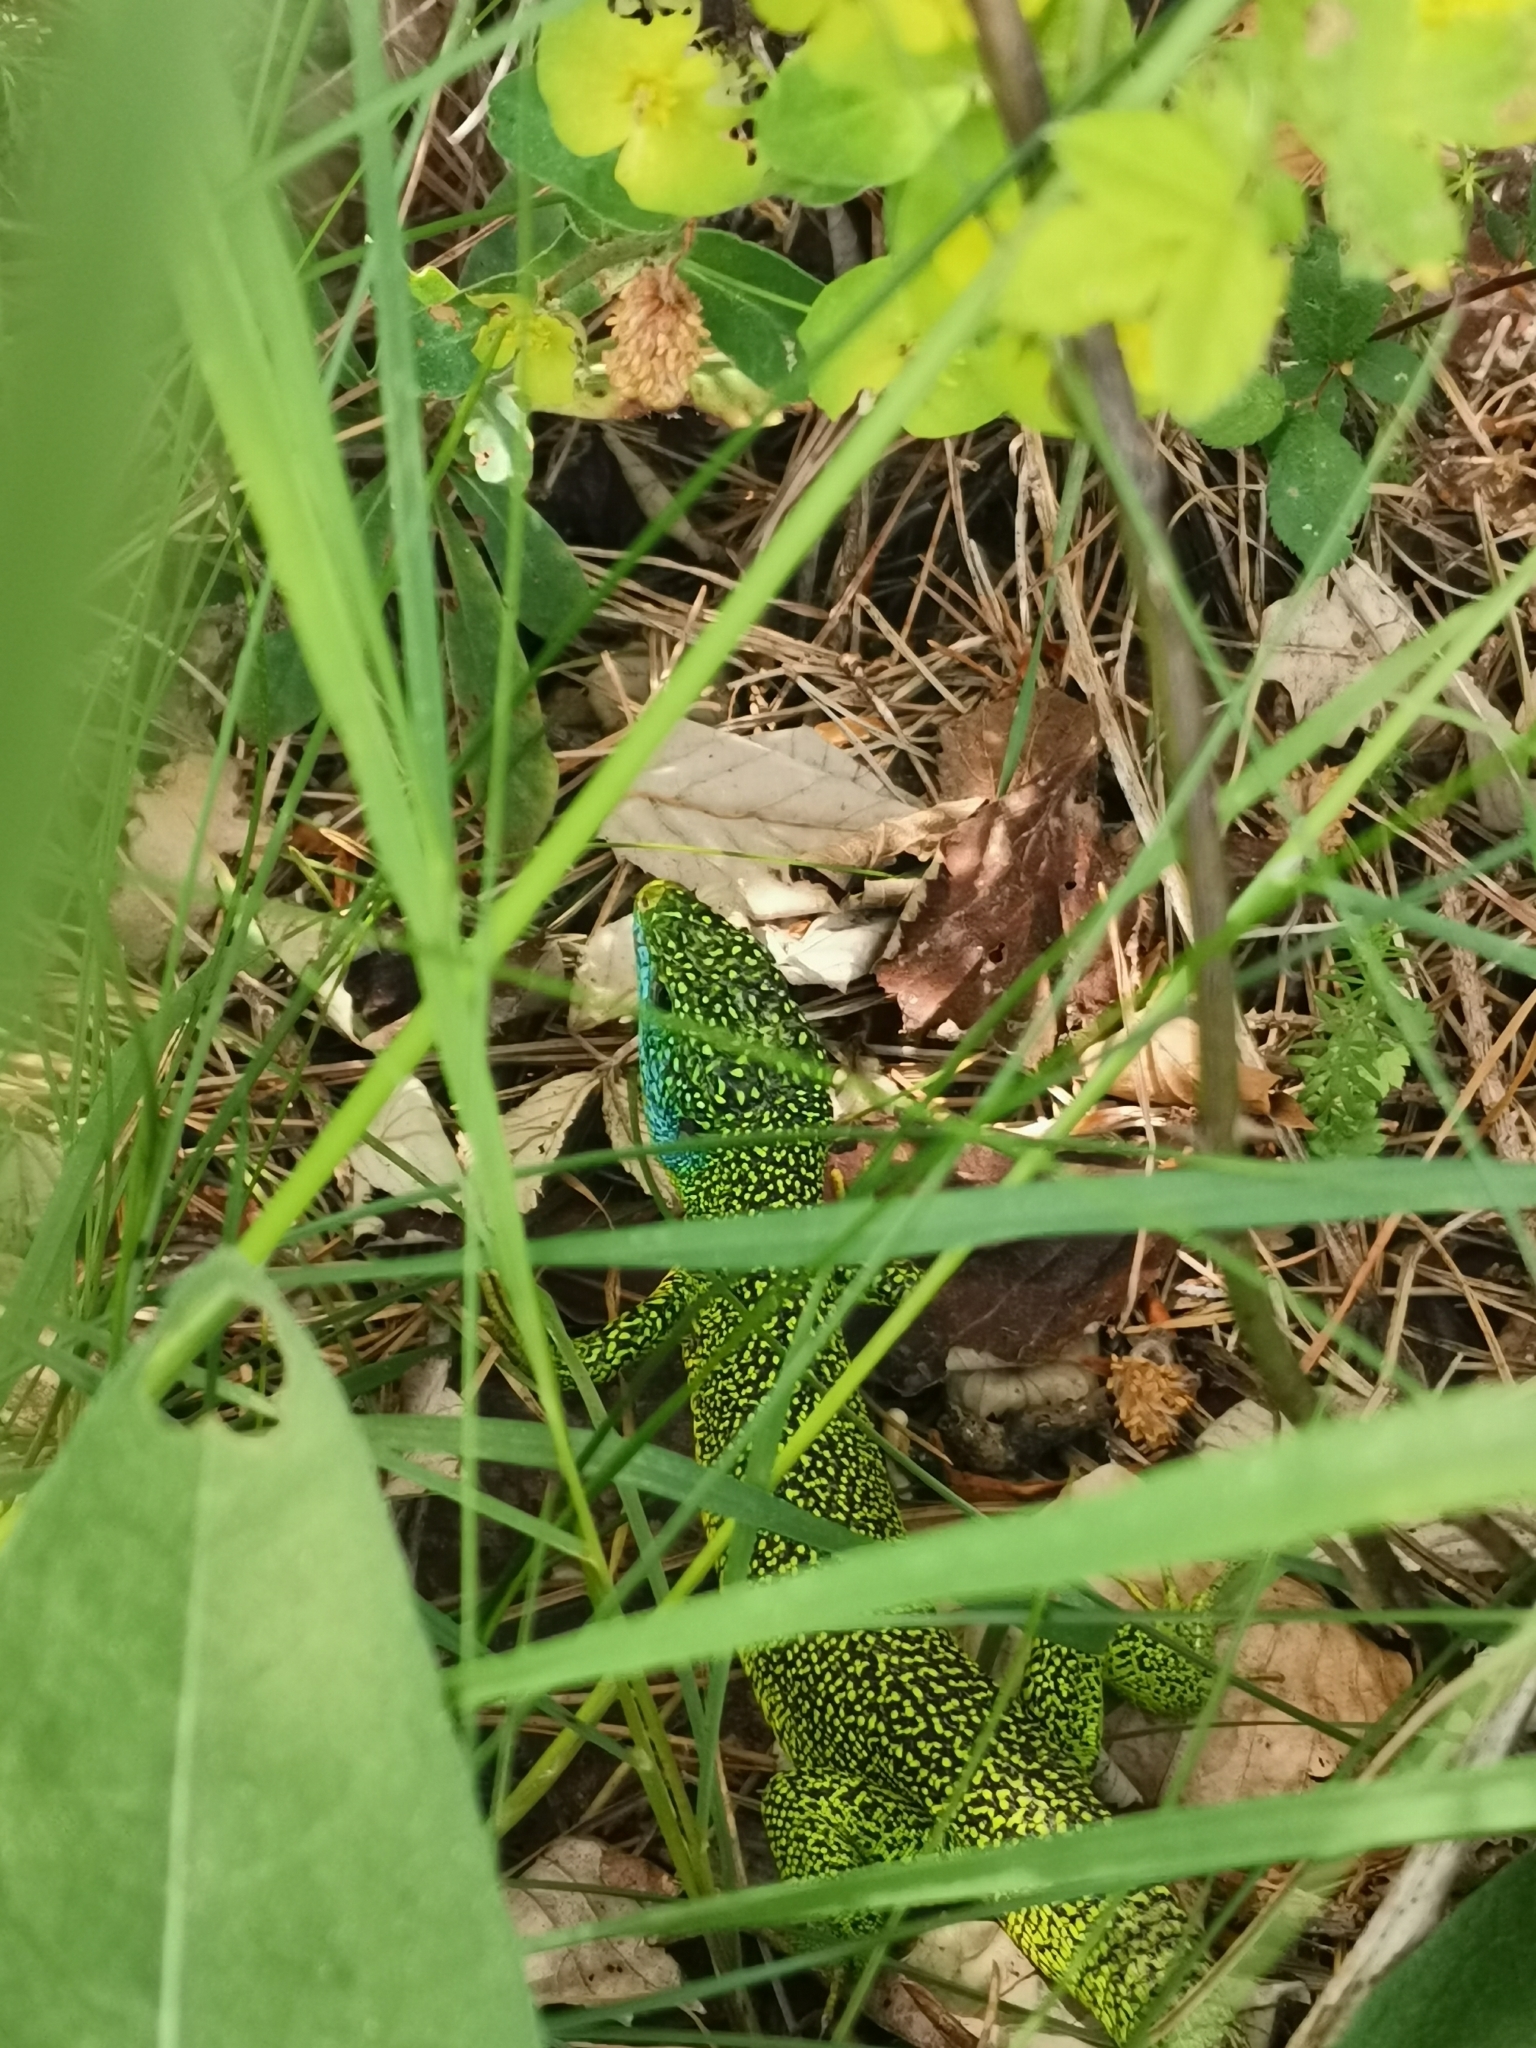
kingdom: Animalia
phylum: Chordata
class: Squamata
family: Lacertidae
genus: Lacerta
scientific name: Lacerta bilineata
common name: Western green lizard
